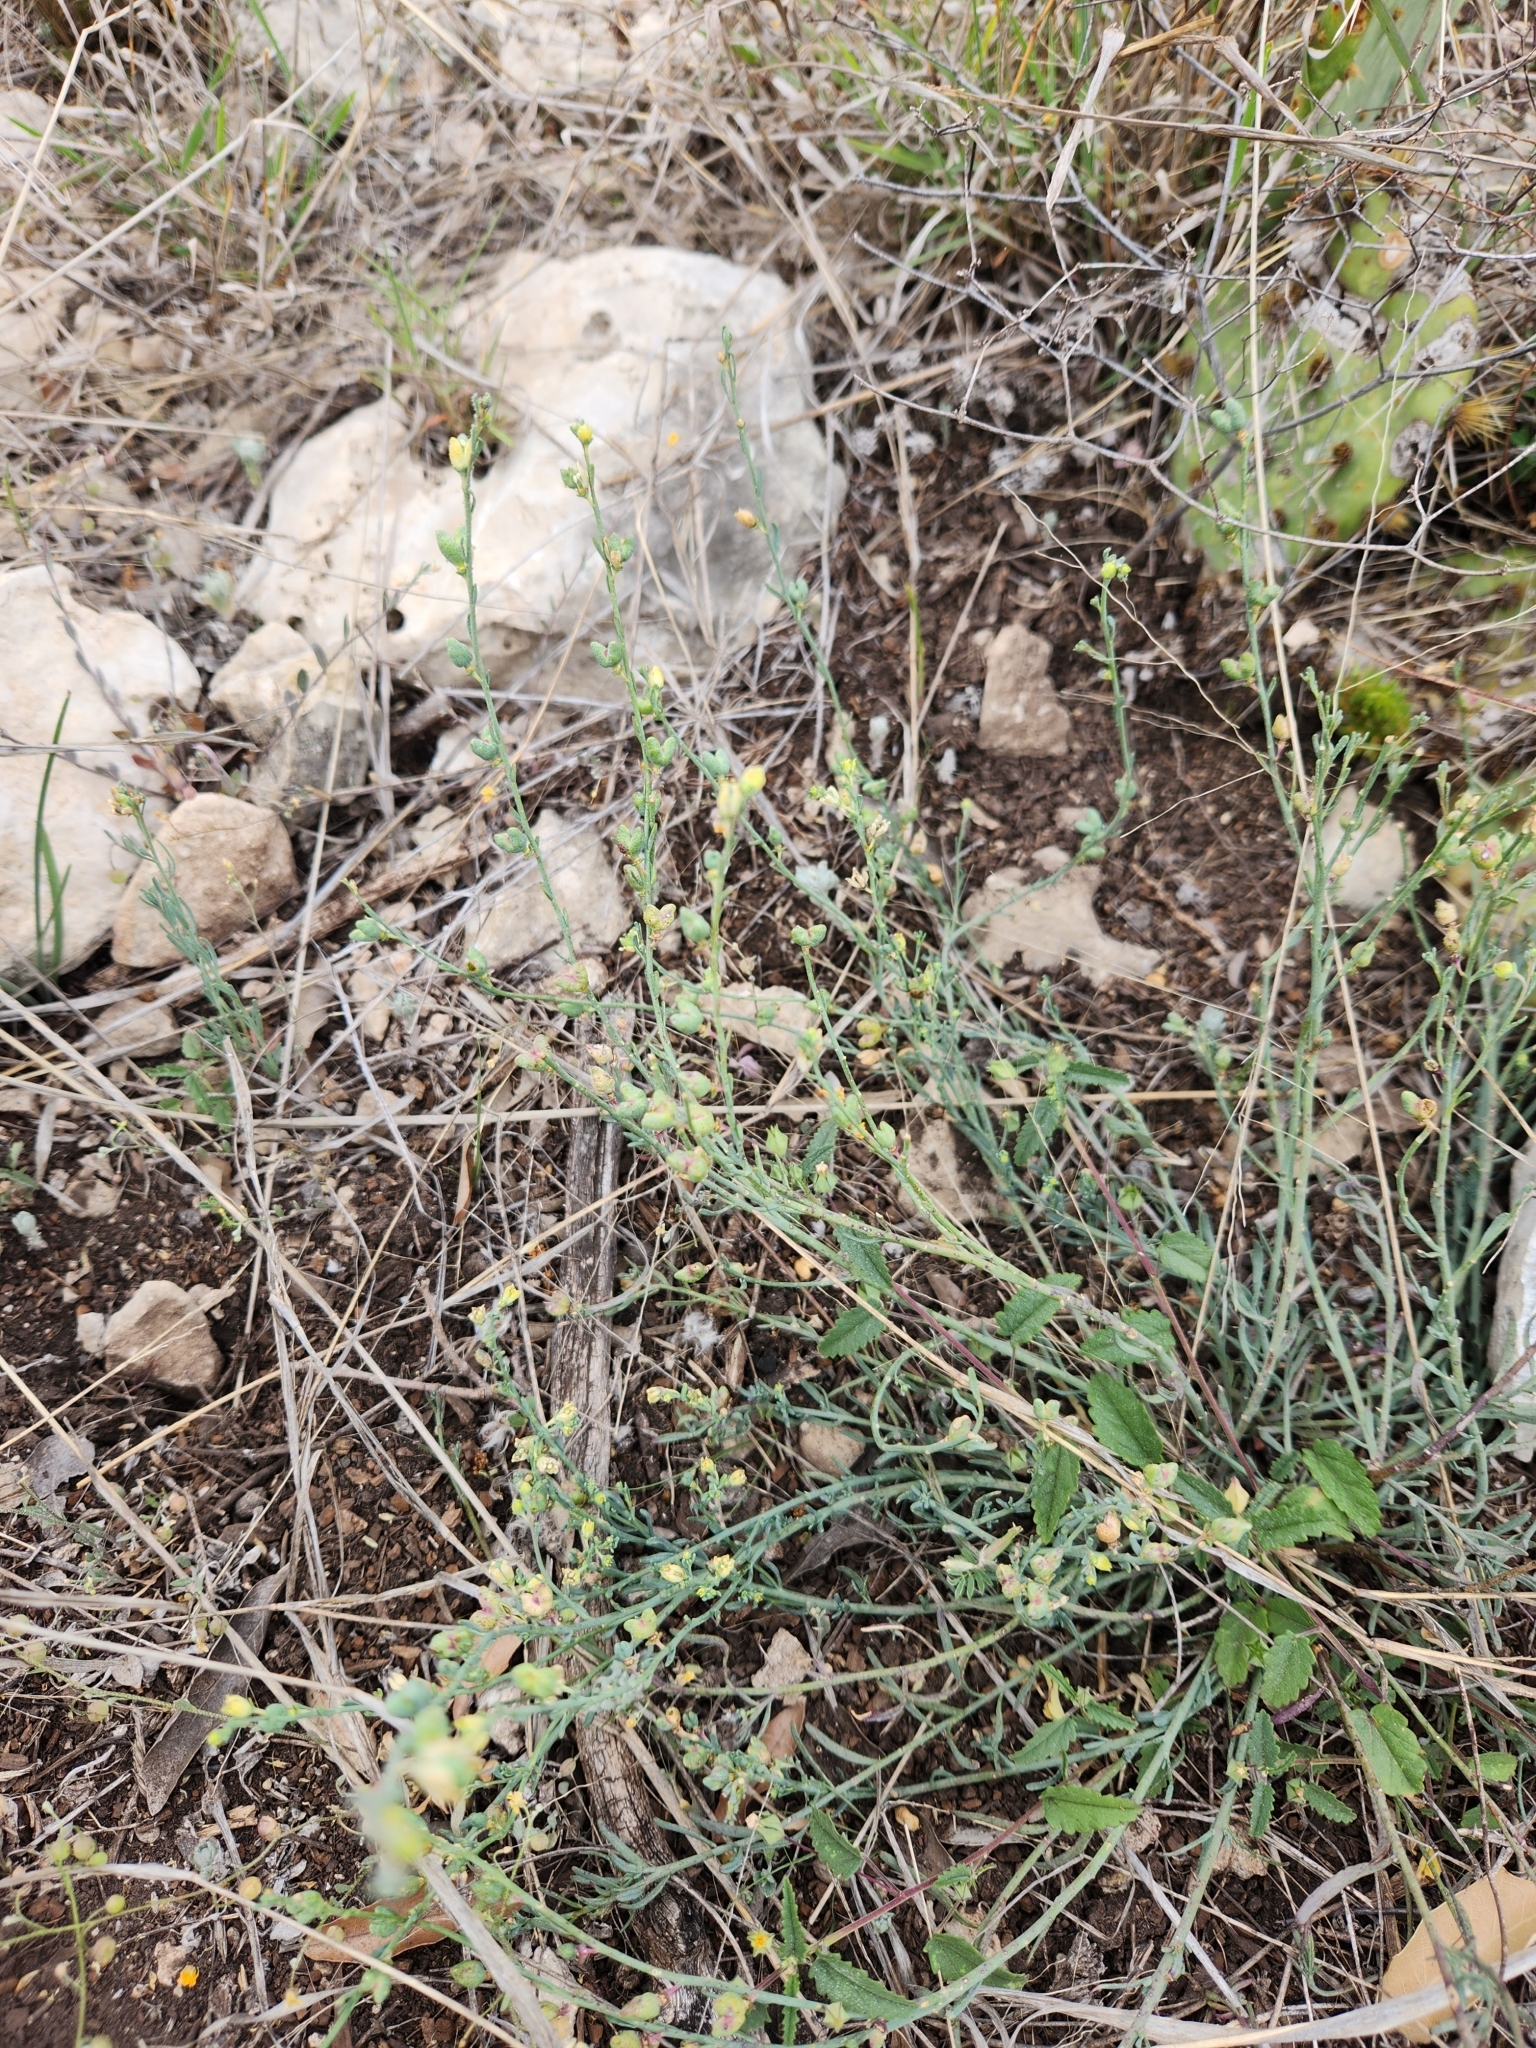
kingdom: Plantae
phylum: Tracheophyta
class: Magnoliopsida
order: Sapindales
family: Rutaceae
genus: Thamnosma
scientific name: Thamnosma texana
